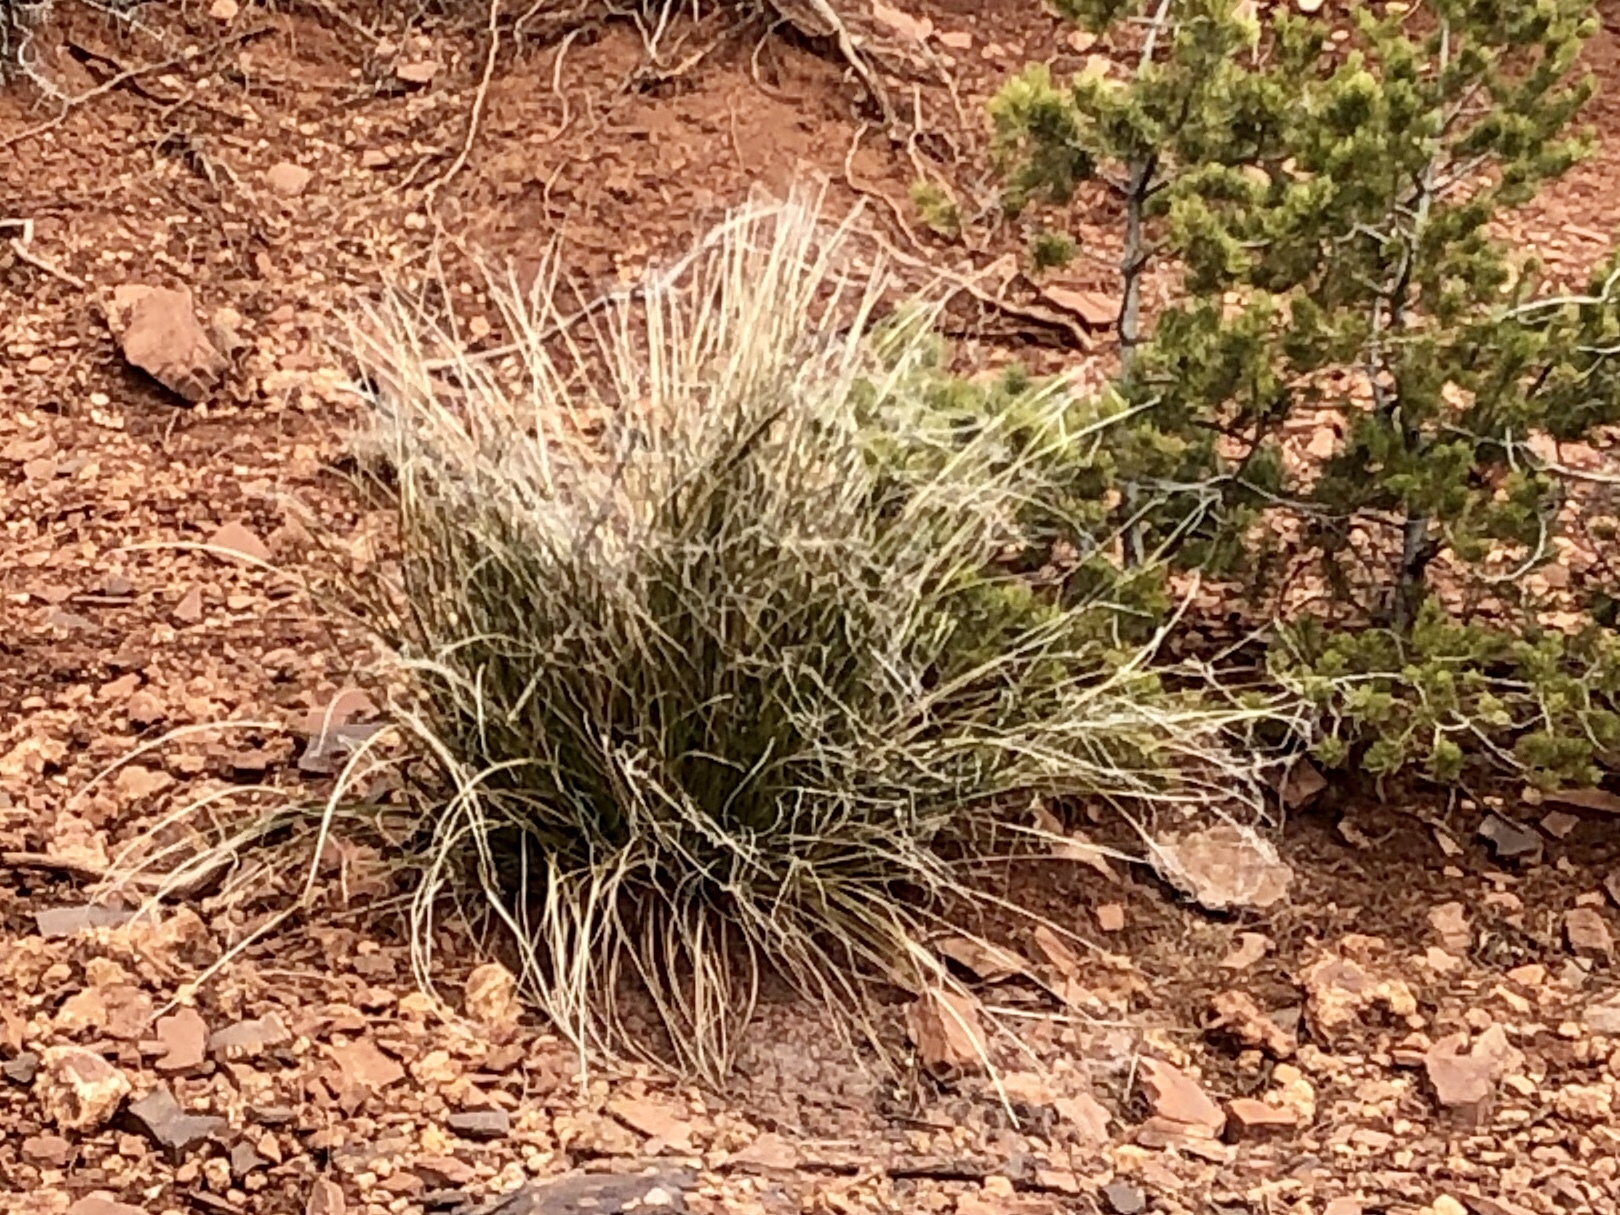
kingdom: Plantae
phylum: Tracheophyta
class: Liliopsida
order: Asparagales
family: Asparagaceae
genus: Nolina
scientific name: Nolina microcarpa
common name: Bear-grass
